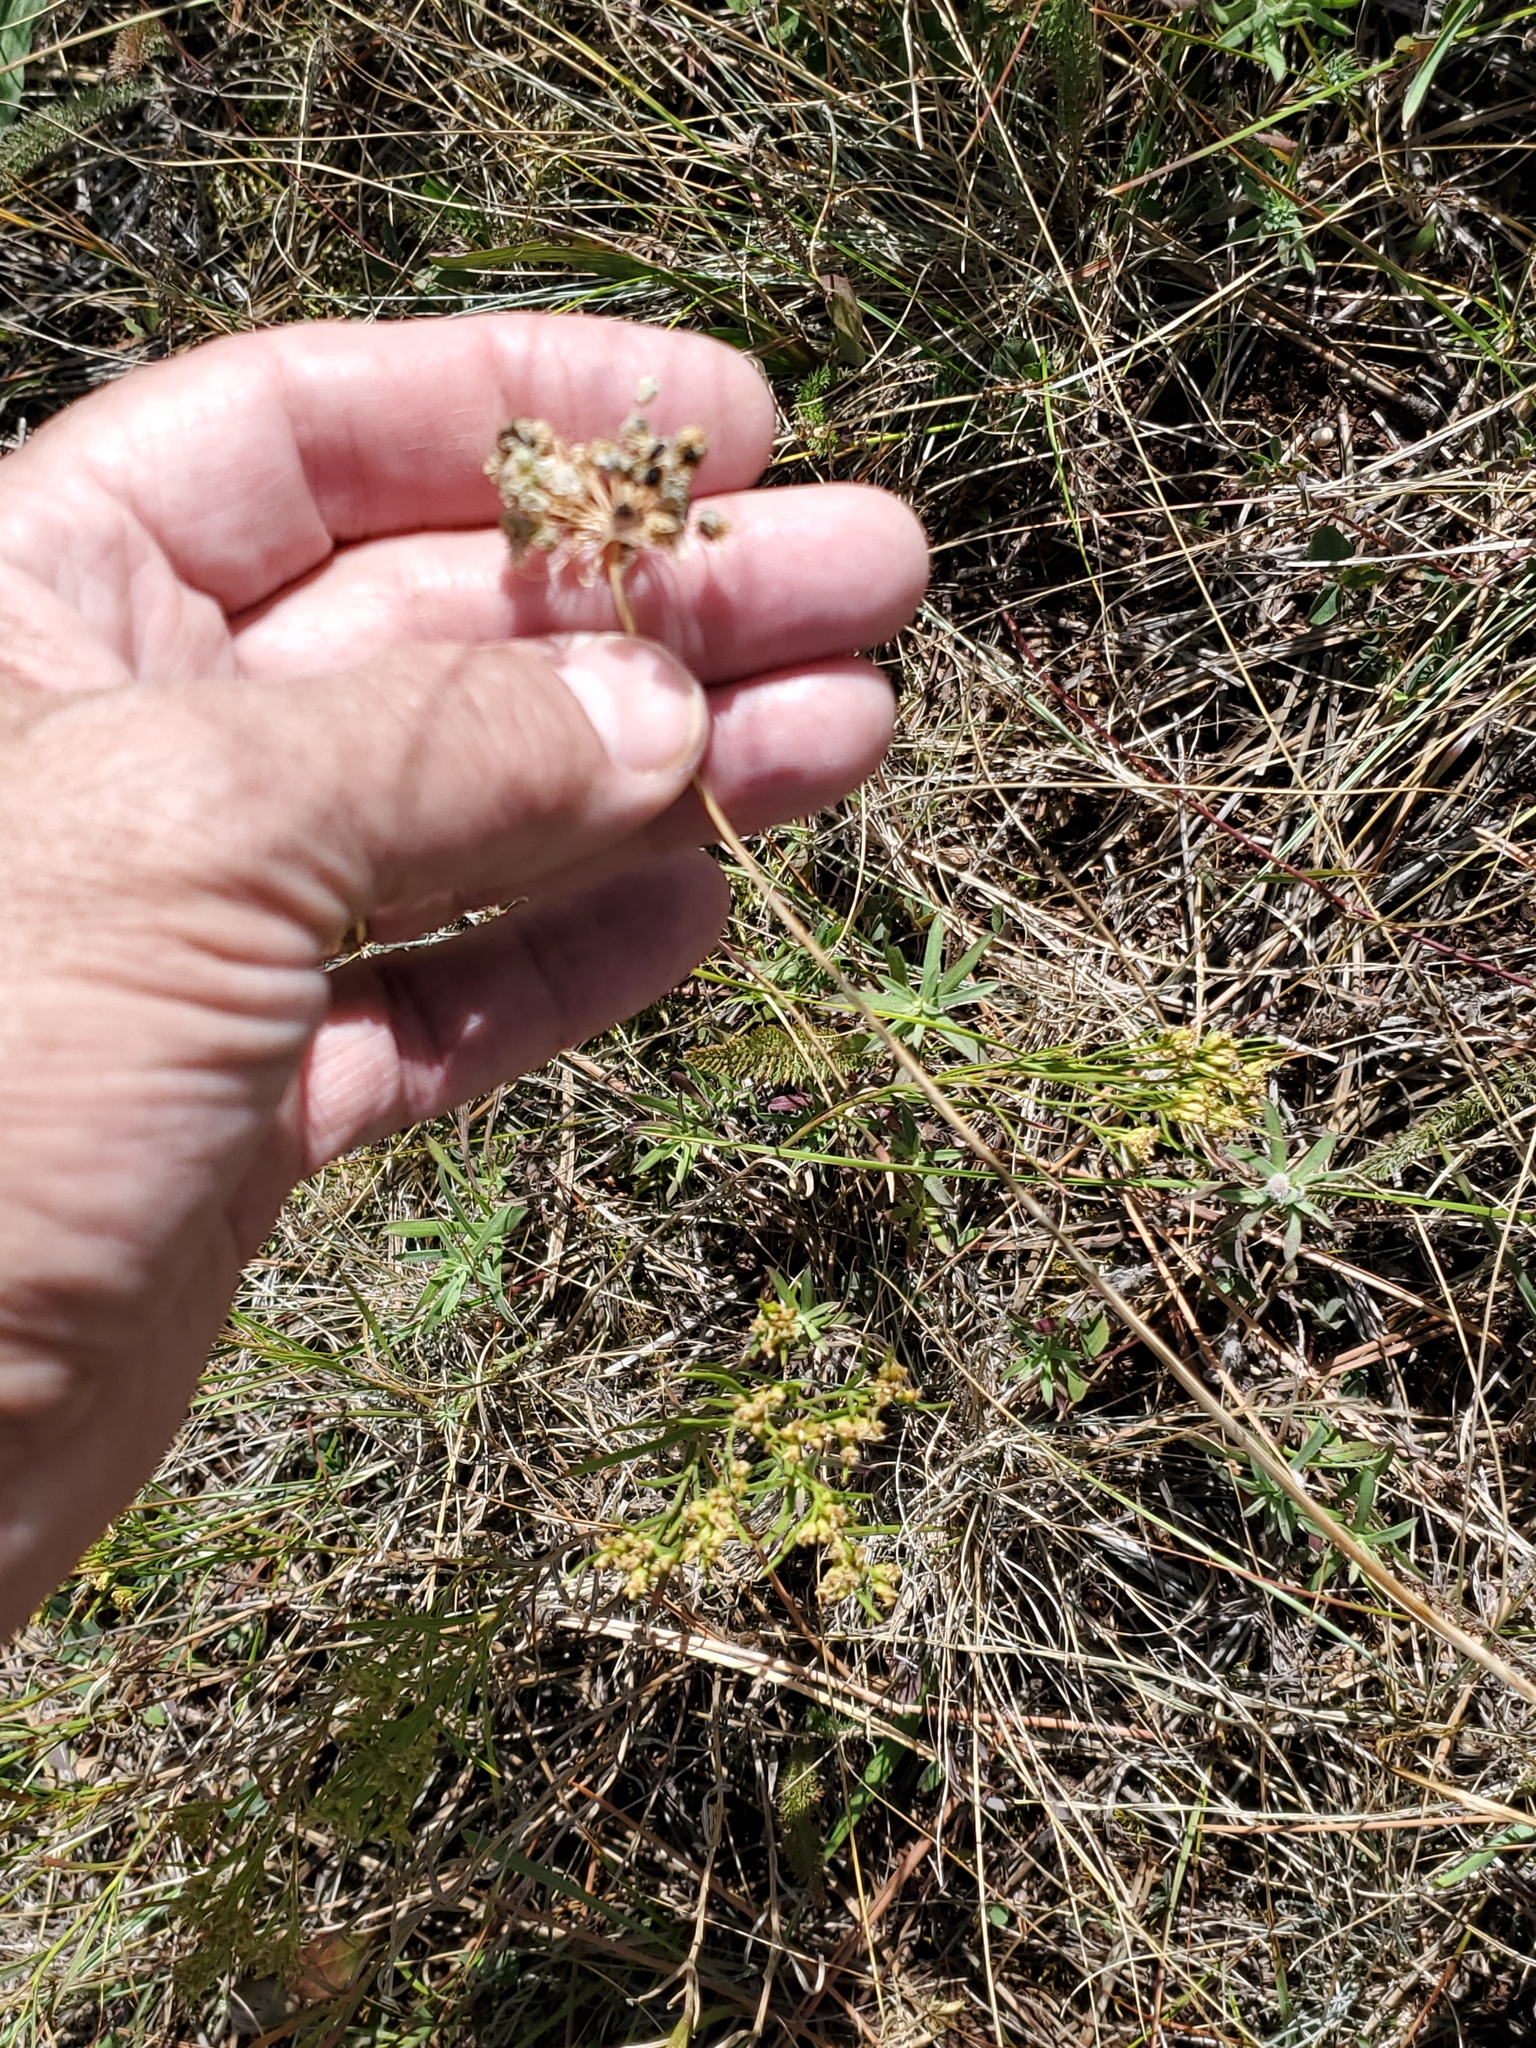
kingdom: Plantae
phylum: Tracheophyta
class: Liliopsida
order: Asparagales
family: Amaryllidaceae
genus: Allium
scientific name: Allium cernuum
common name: Nodding onion
